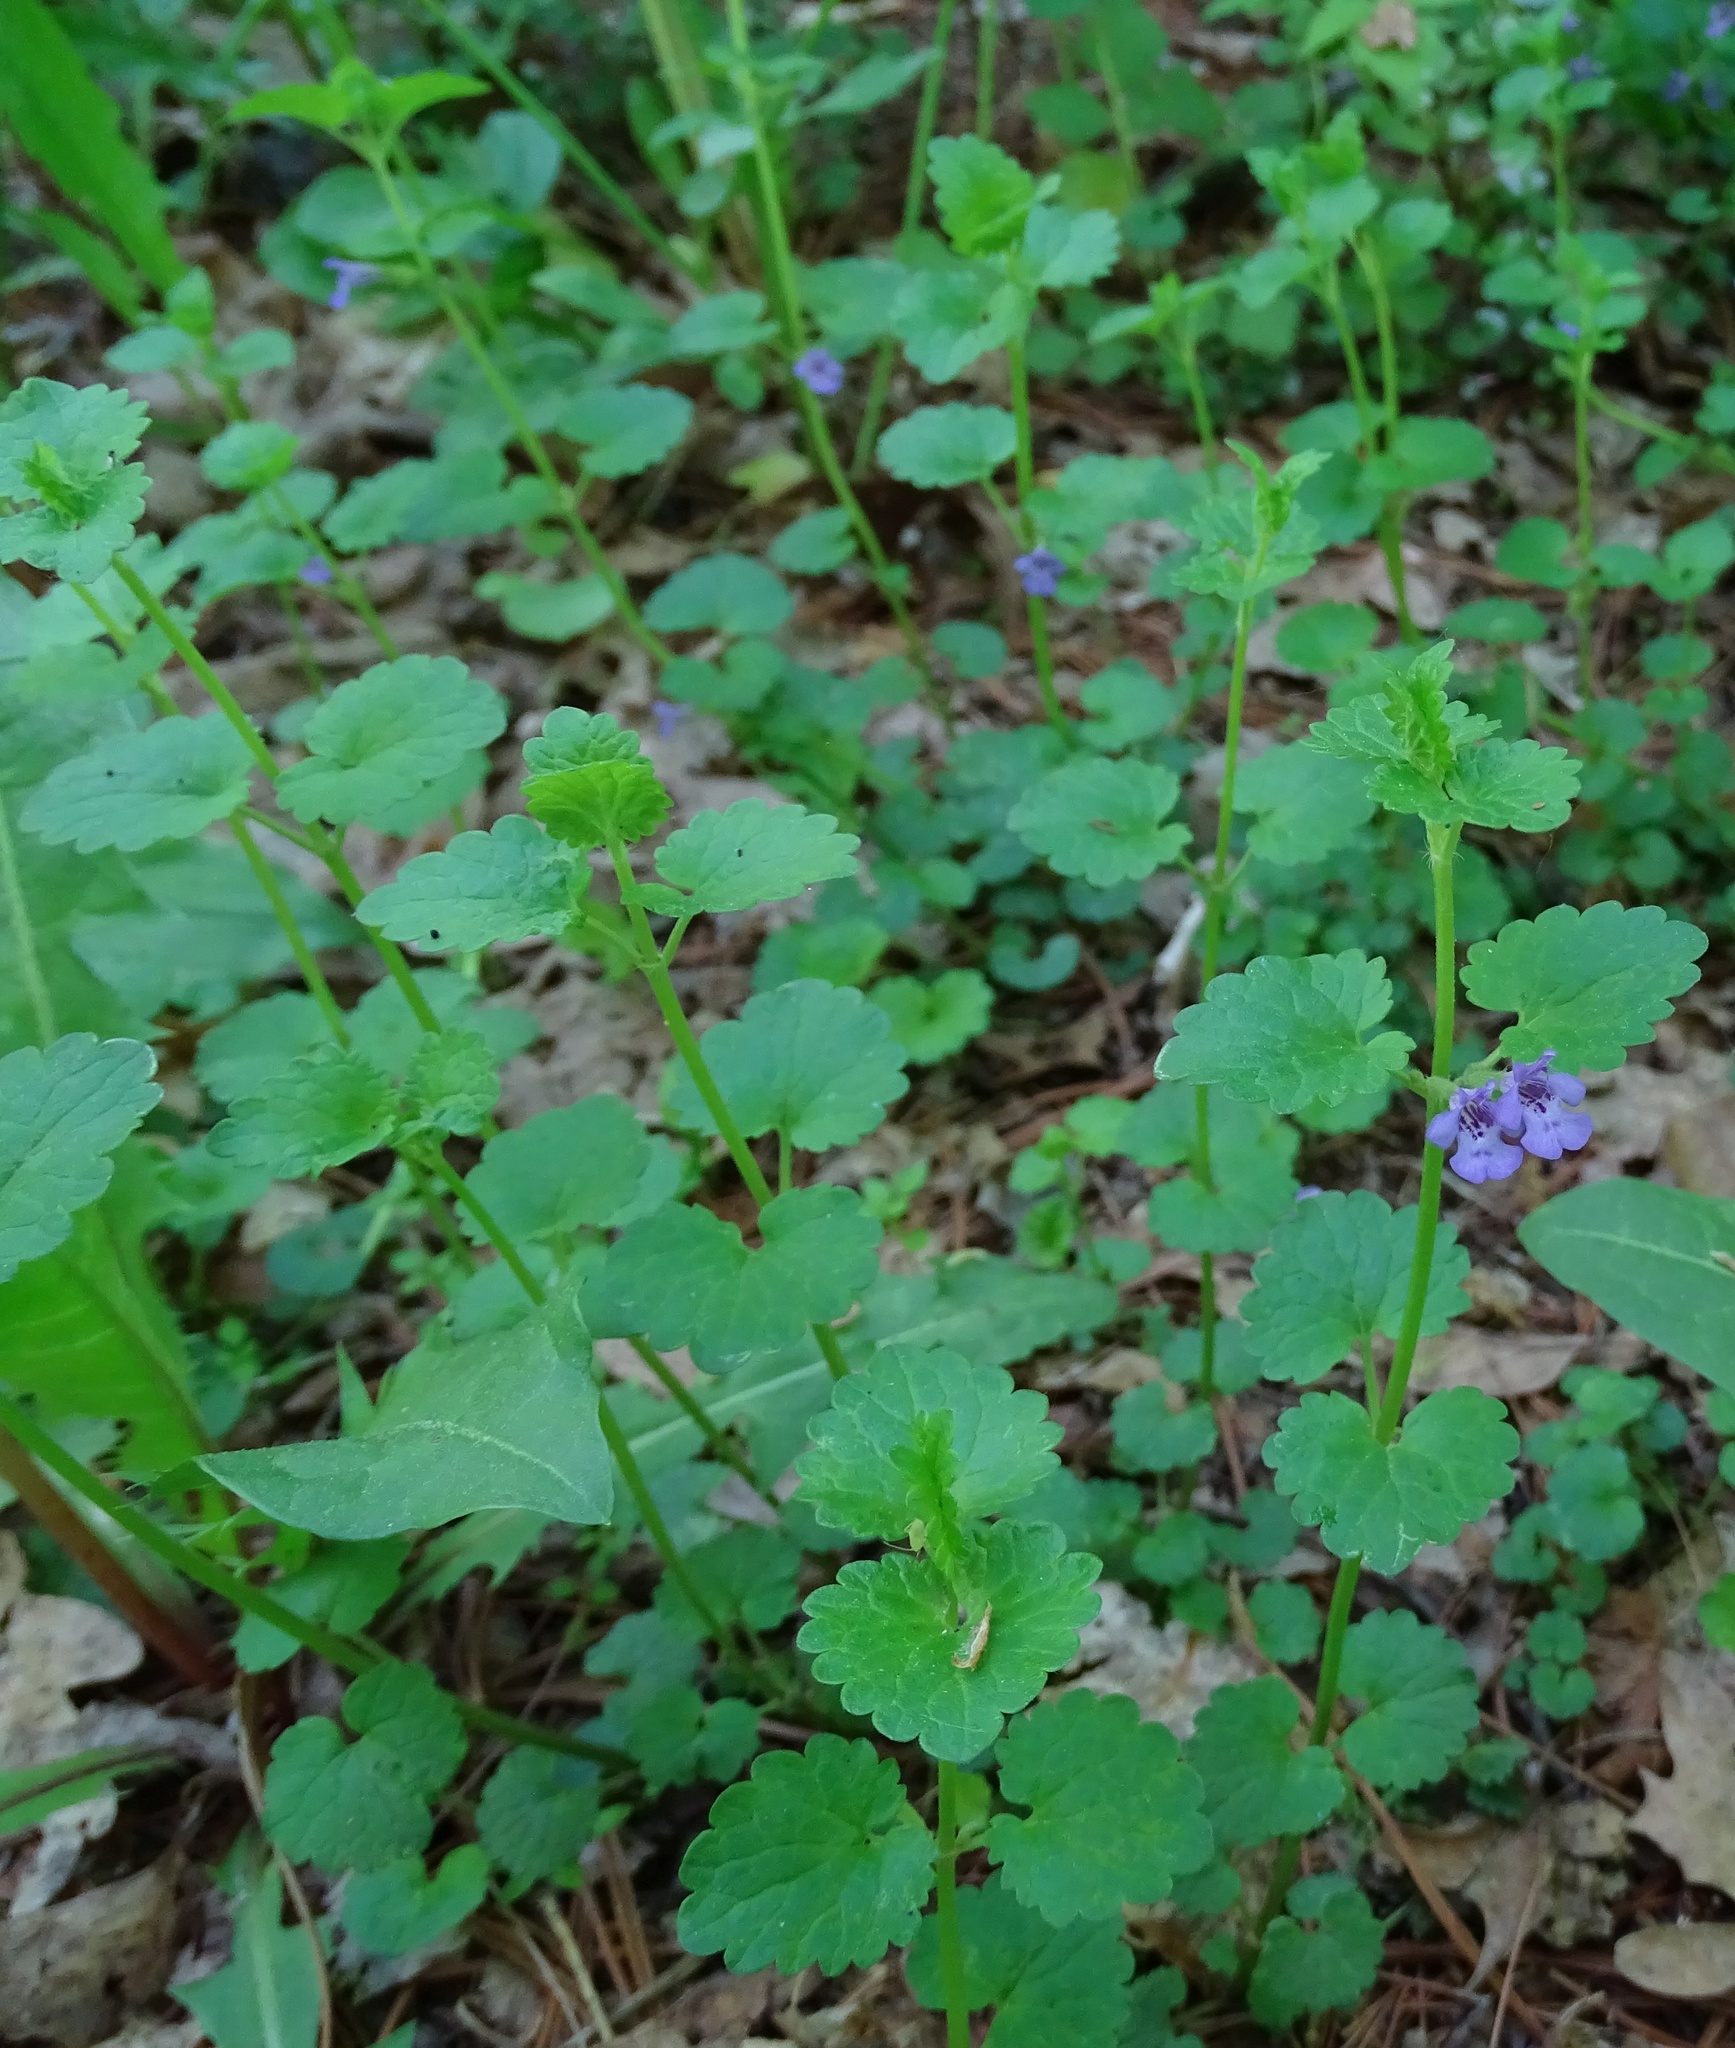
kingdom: Plantae
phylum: Tracheophyta
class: Magnoliopsida
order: Lamiales
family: Lamiaceae
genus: Glechoma
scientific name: Glechoma hederacea
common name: Ground ivy
